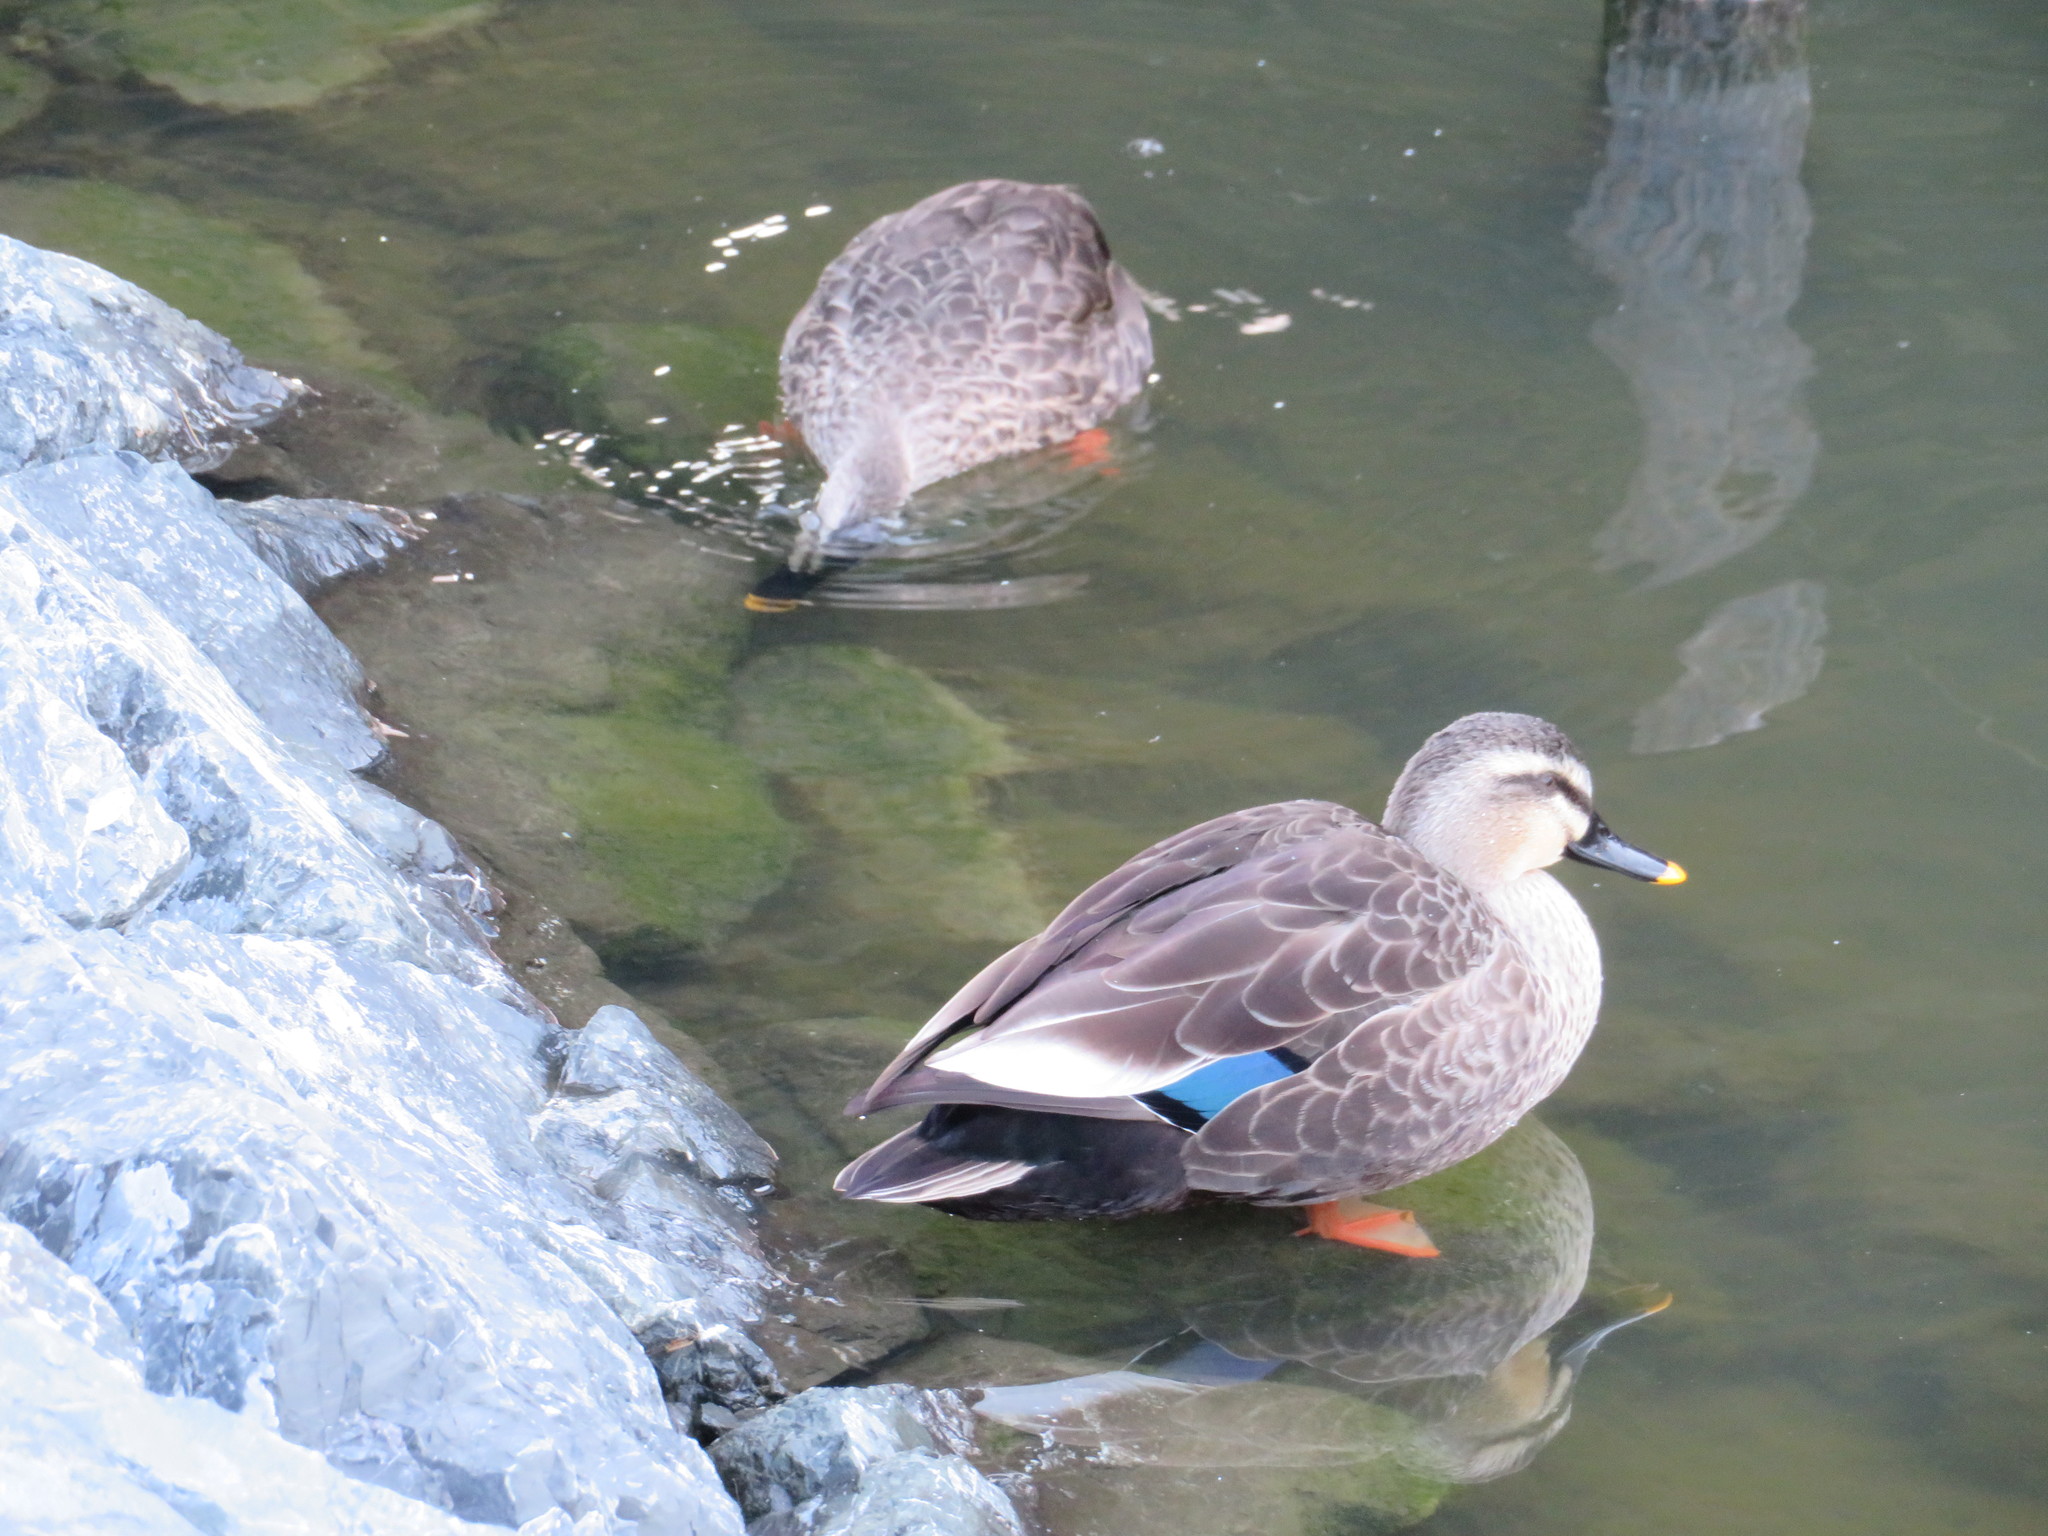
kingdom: Animalia
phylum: Chordata
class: Aves
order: Anseriformes
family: Anatidae
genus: Anas
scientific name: Anas zonorhyncha
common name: Eastern spot-billed duck
